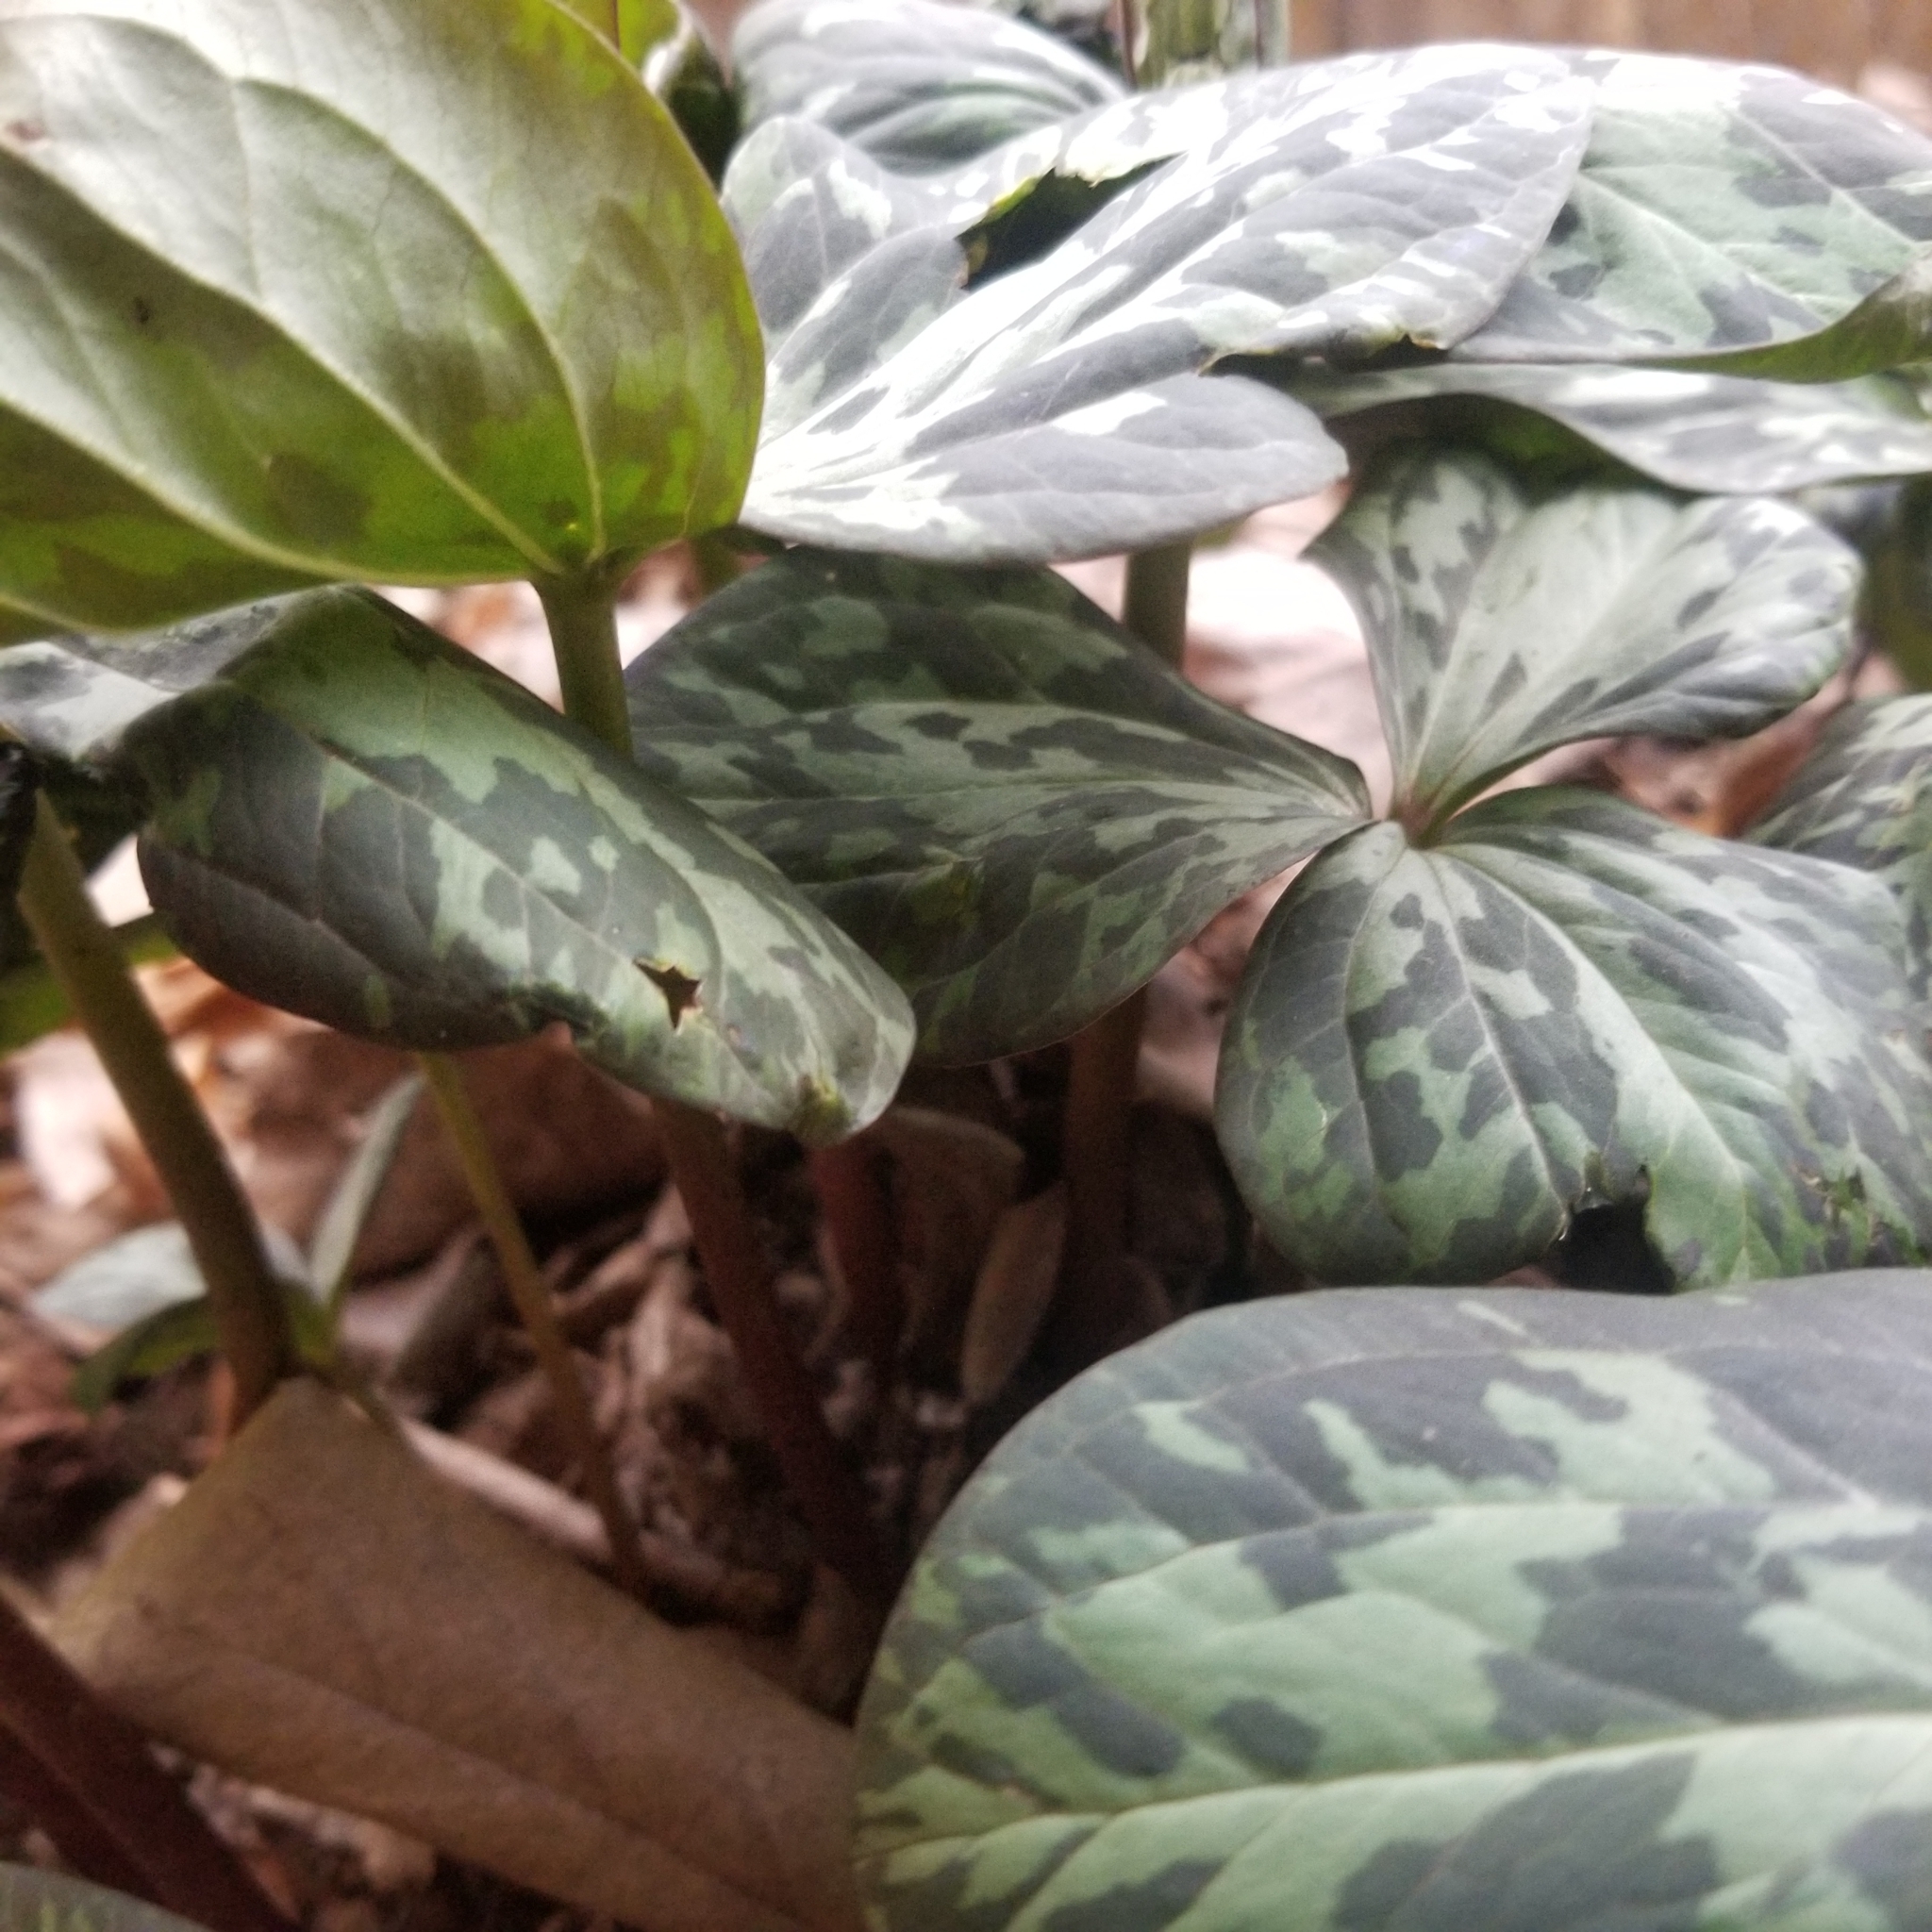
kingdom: Plantae
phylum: Tracheophyta
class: Liliopsida
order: Liliales
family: Melanthiaceae
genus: Trillium
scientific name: Trillium cuneatum
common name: Cuneate trillium
